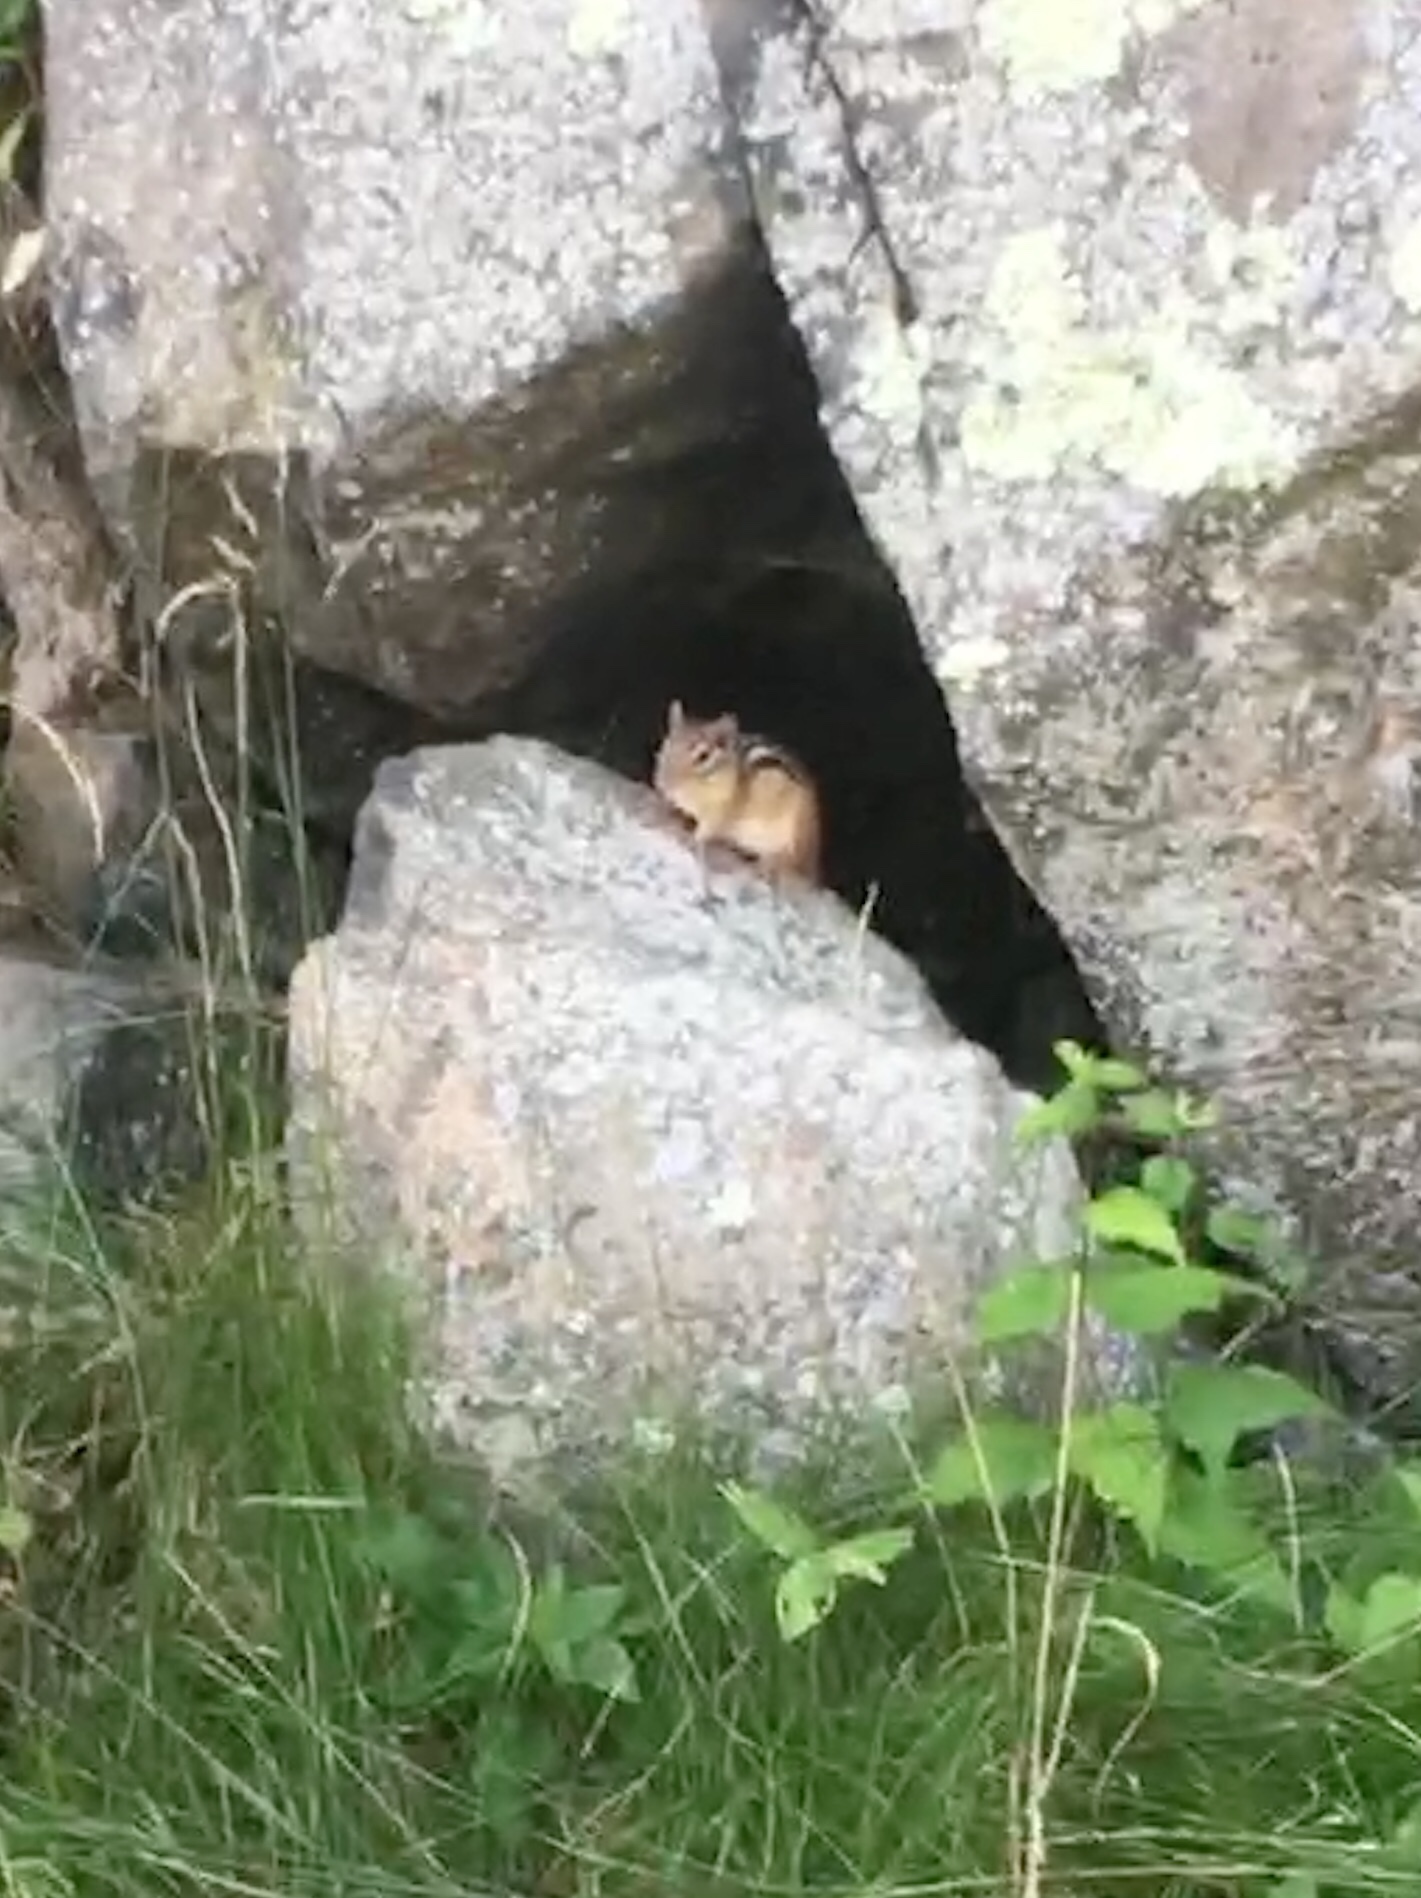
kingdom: Animalia
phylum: Chordata
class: Mammalia
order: Rodentia
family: Sciuridae
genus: Tamias
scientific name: Tamias striatus
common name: Eastern chipmunk
